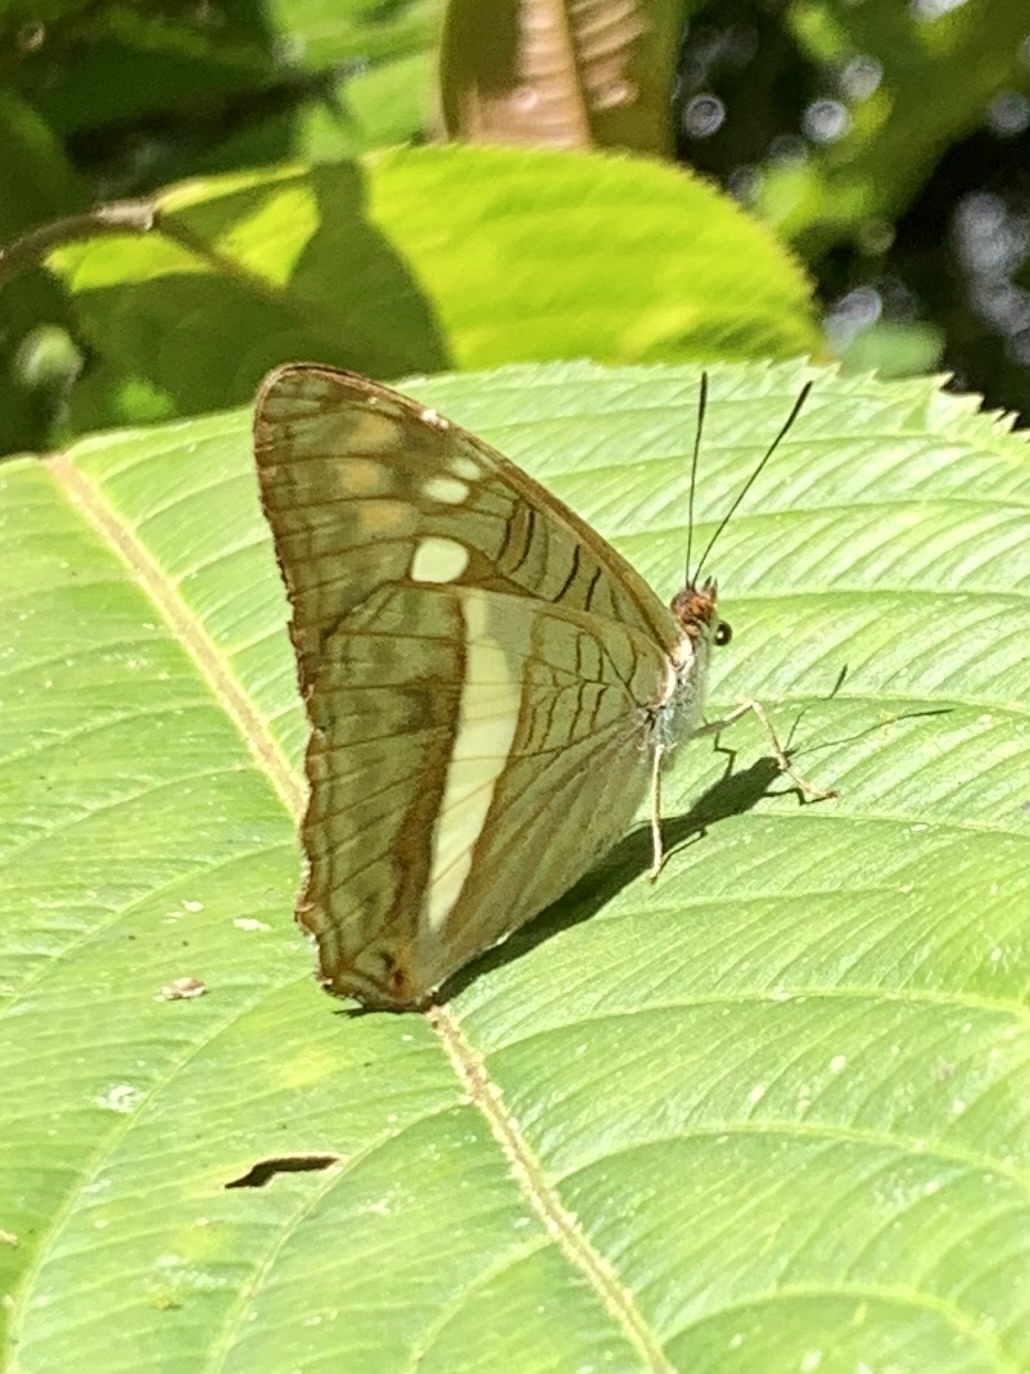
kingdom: Animalia
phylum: Arthropoda
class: Insecta
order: Lepidoptera
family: Nymphalidae
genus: Limenitis
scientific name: Limenitis alala
